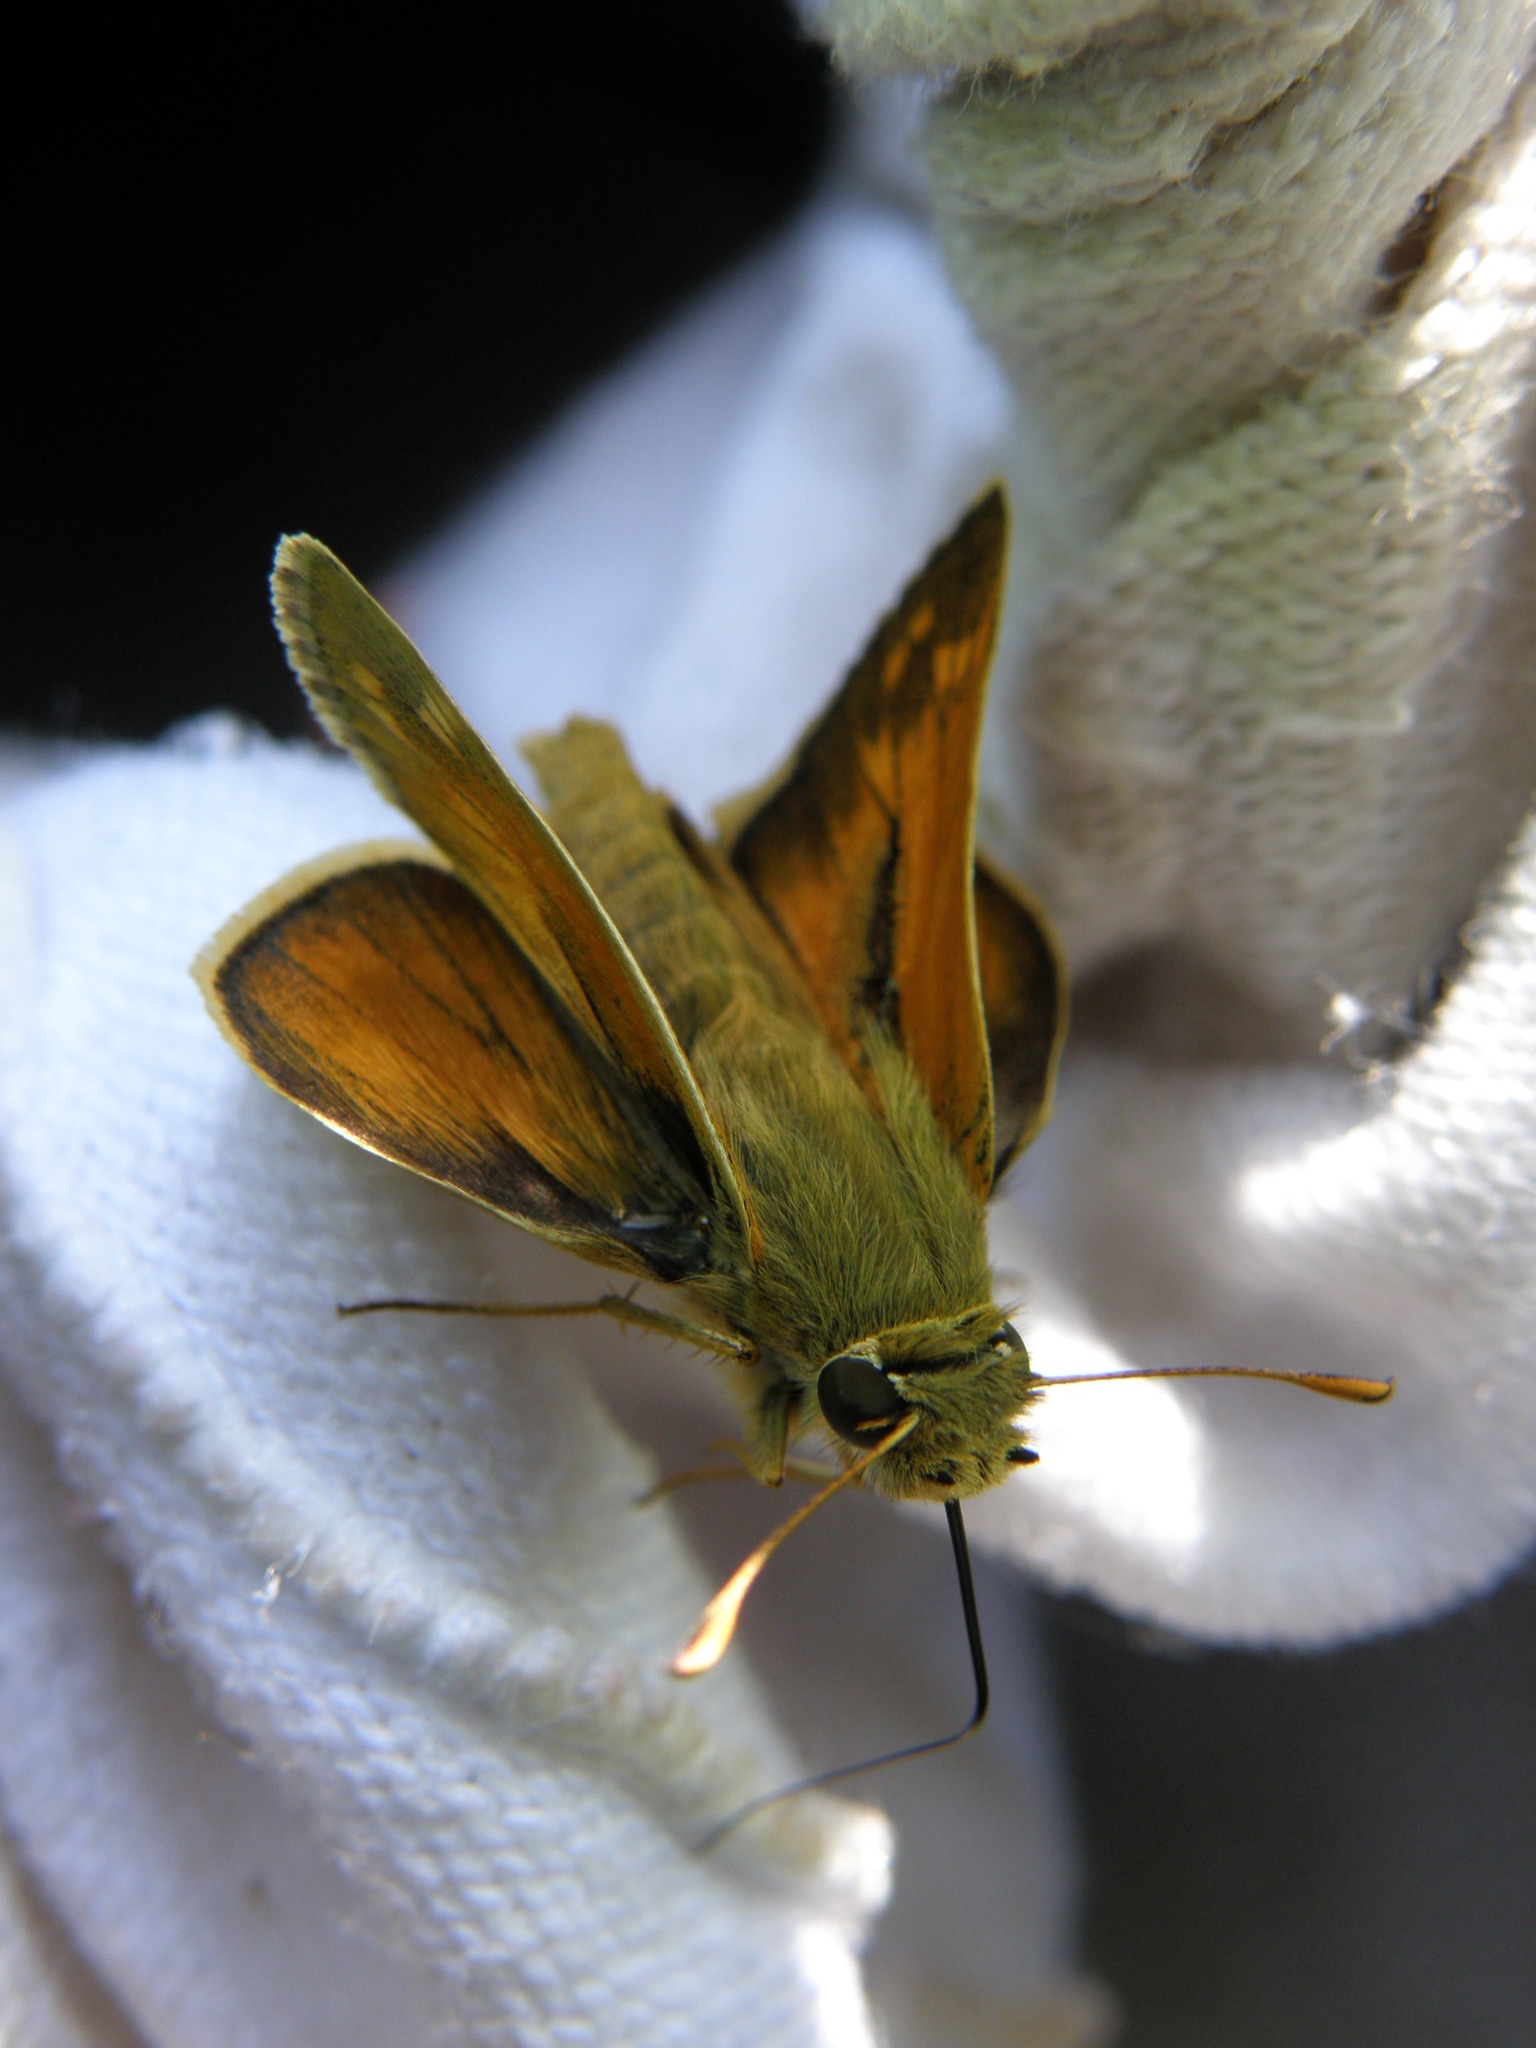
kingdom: Animalia
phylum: Arthropoda
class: Insecta
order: Lepidoptera
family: Hesperiidae
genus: Hesperia
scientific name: Hesperia comma
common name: Common branded skipper
